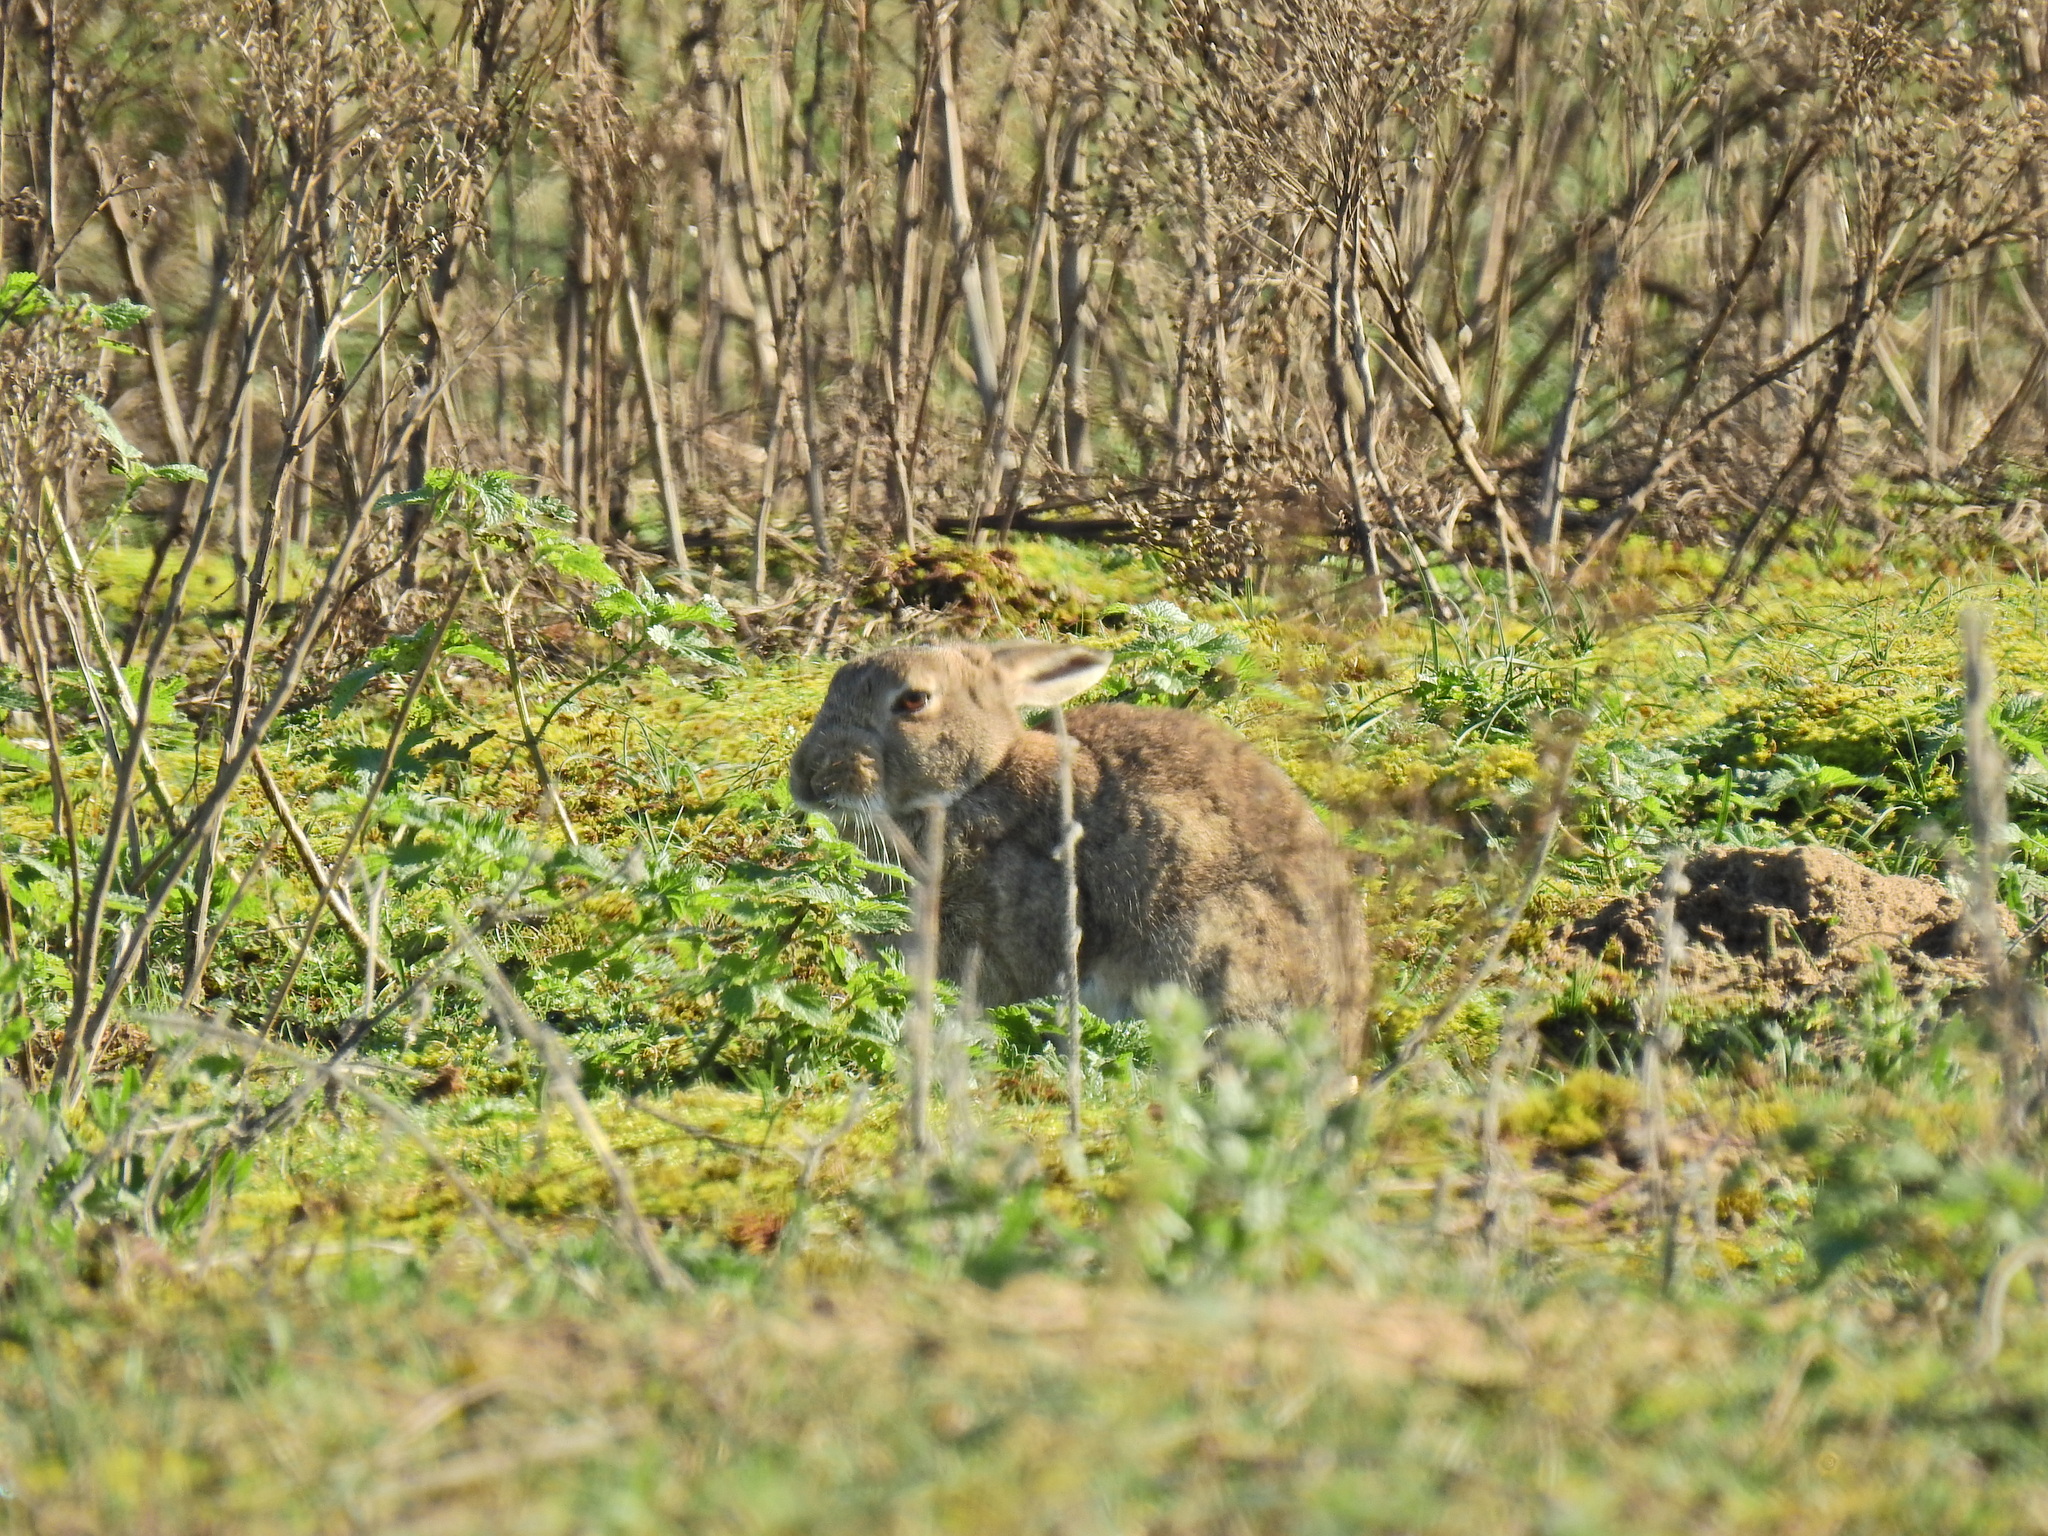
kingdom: Animalia
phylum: Chordata
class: Mammalia
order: Lagomorpha
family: Leporidae
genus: Oryctolagus
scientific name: Oryctolagus cuniculus
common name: European rabbit
